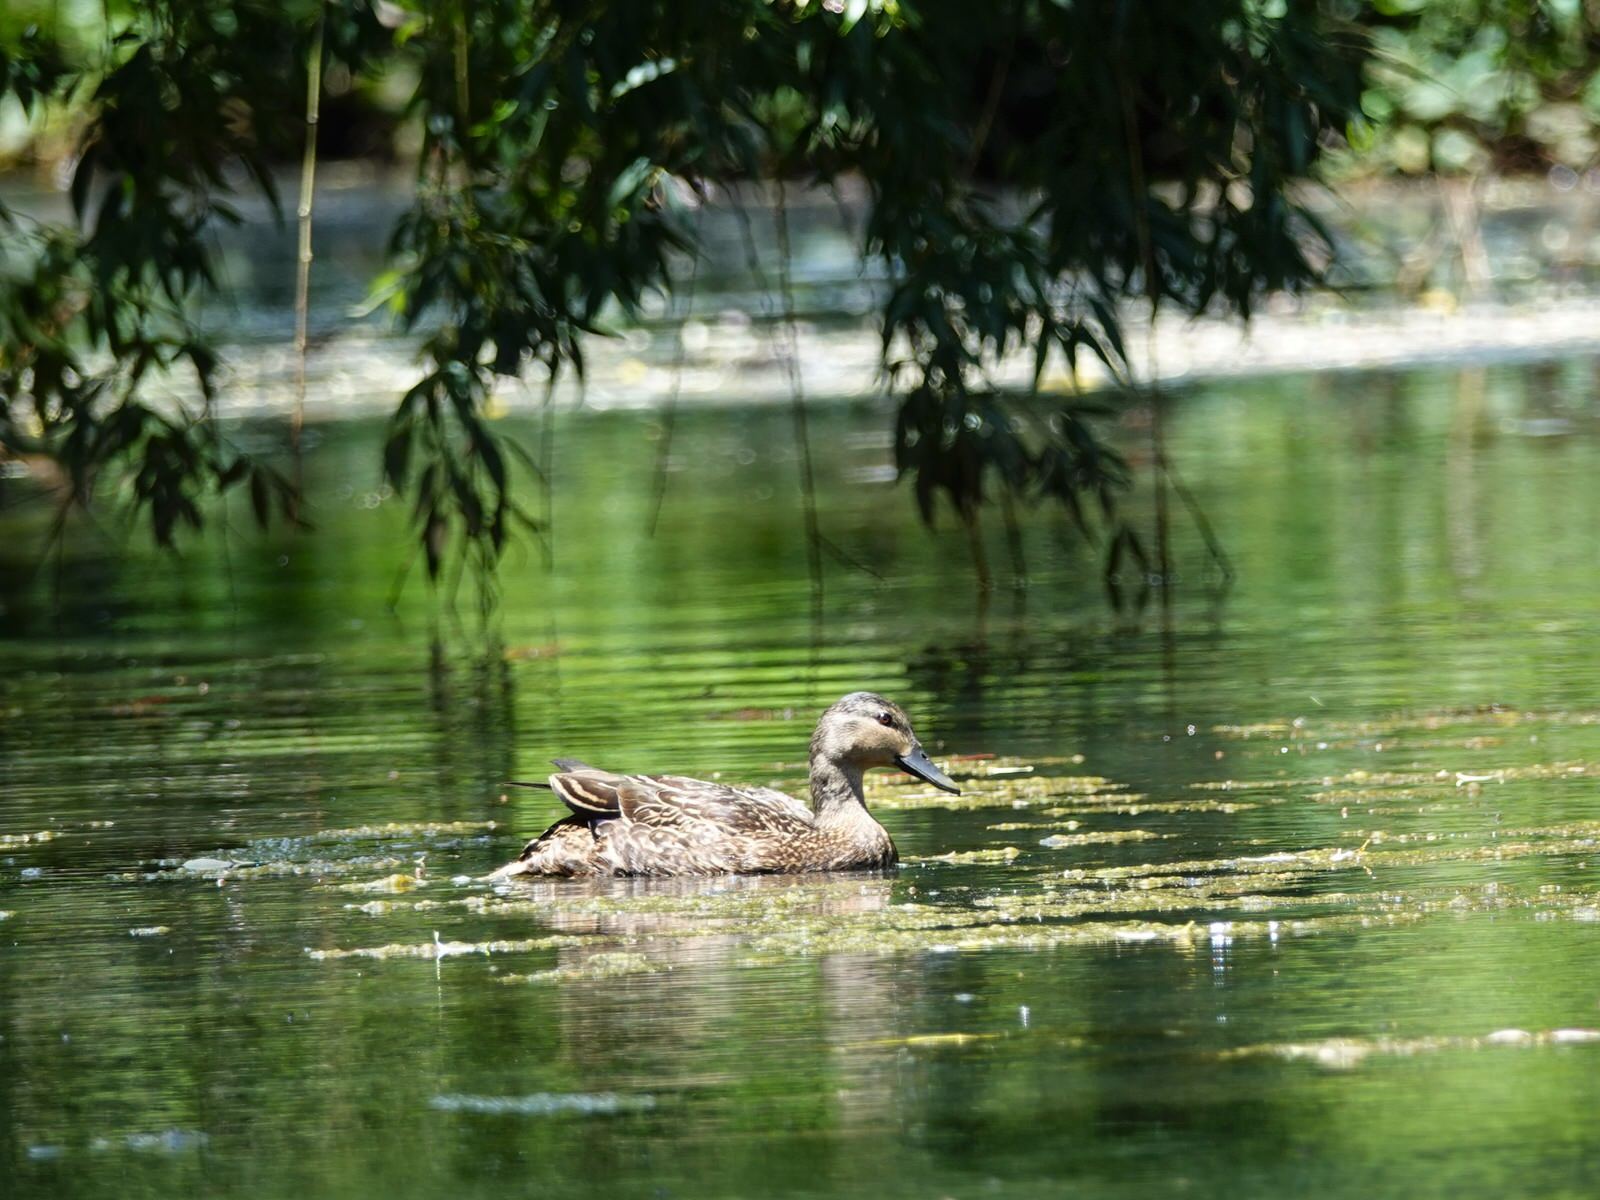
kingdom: Animalia
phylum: Chordata
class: Aves
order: Anseriformes
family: Anatidae
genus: Anas
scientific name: Anas
